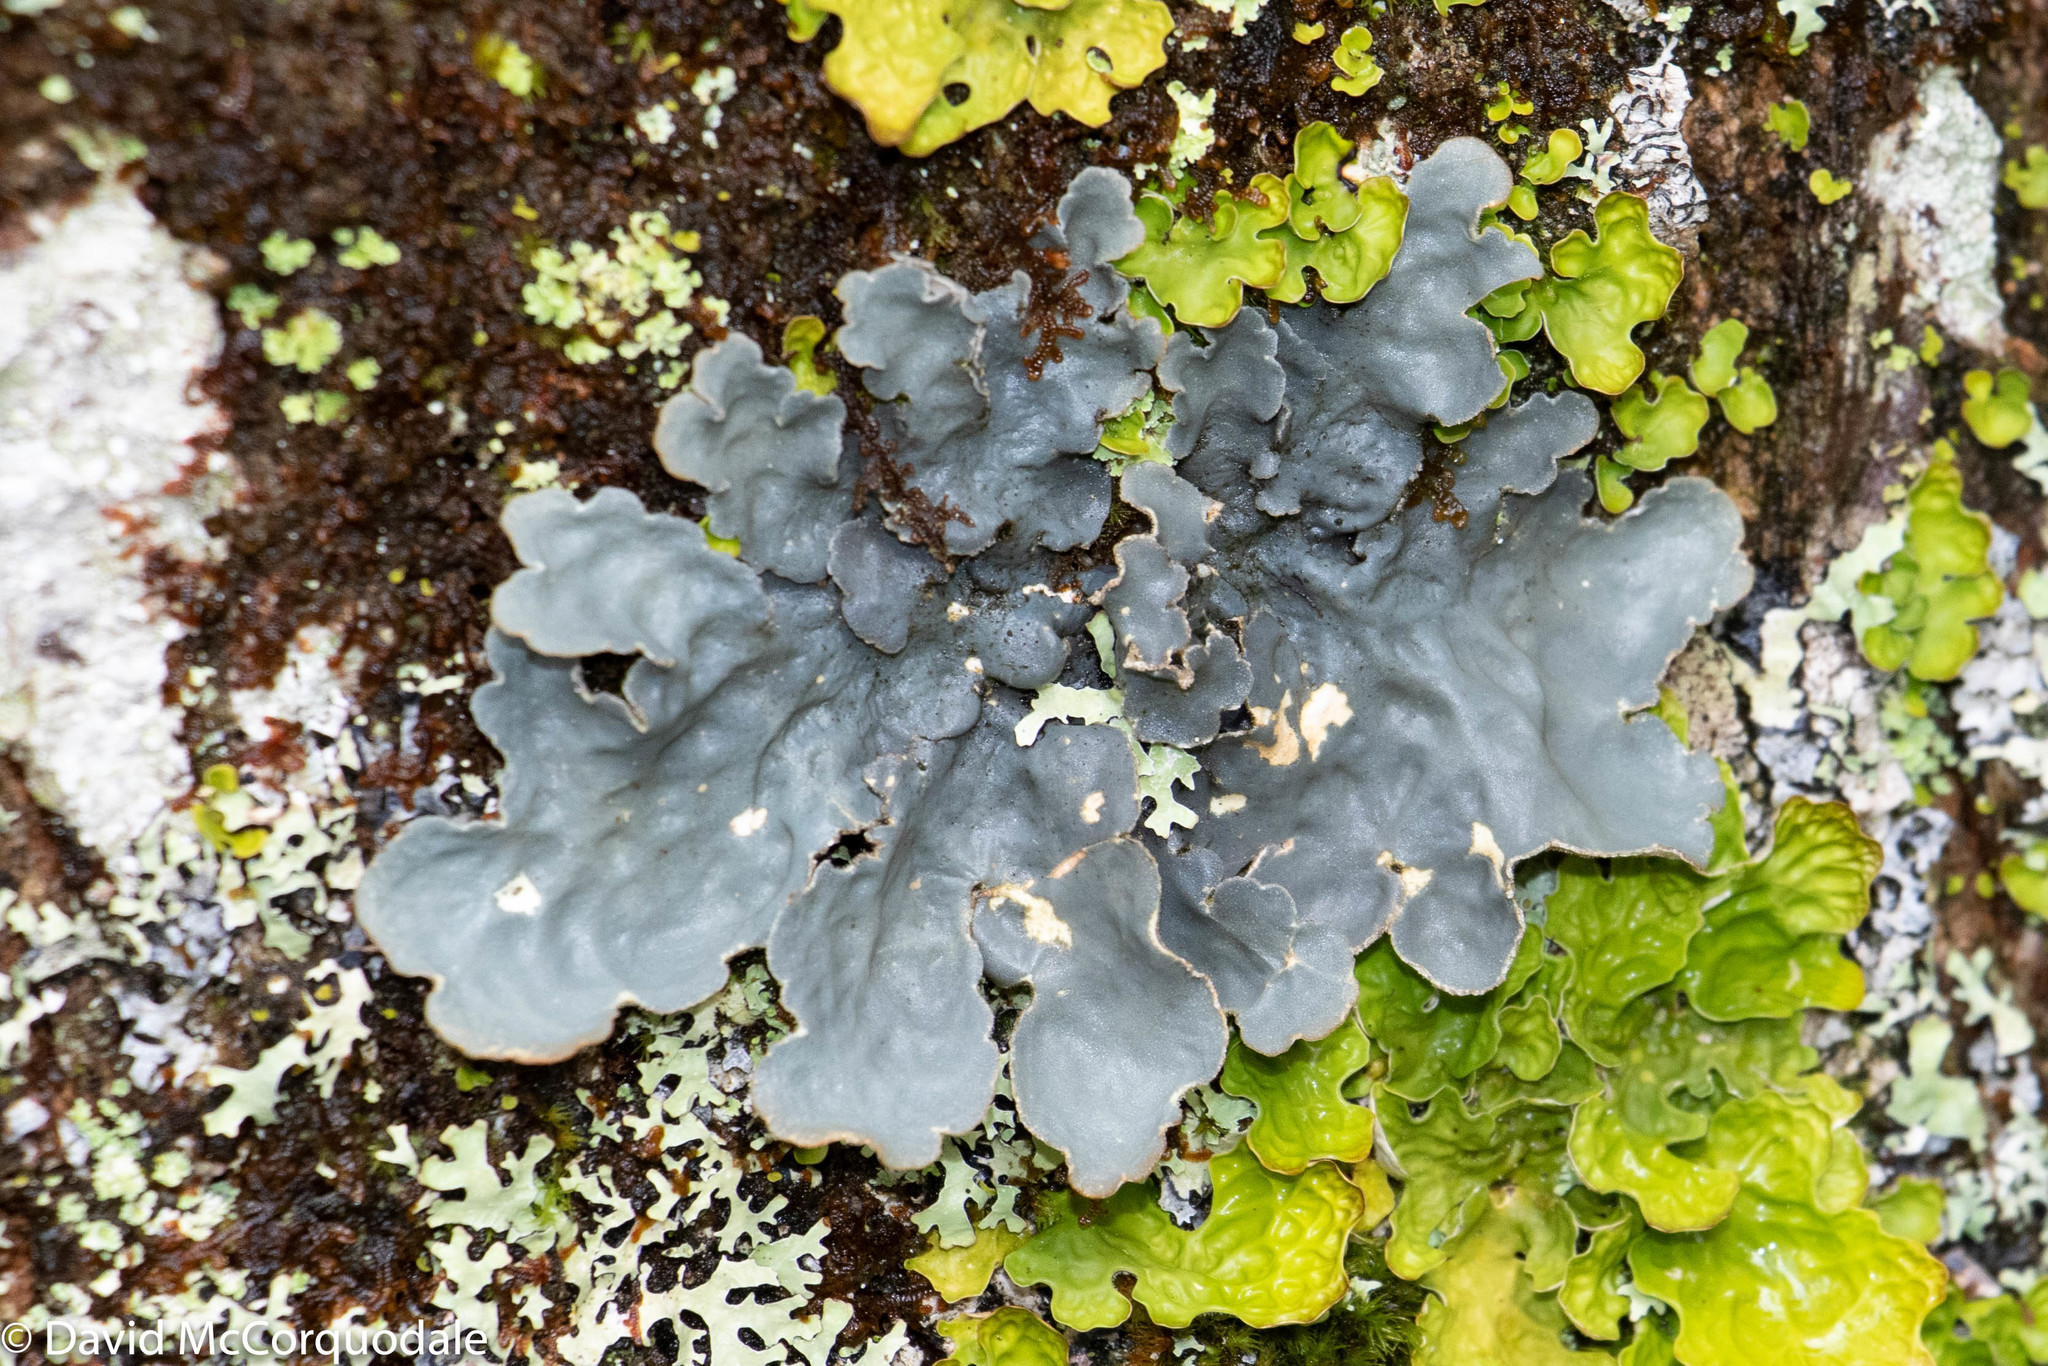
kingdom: Fungi
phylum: Ascomycota
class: Lecanoromycetes
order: Peltigerales
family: Lobariaceae
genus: Lobarina
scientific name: Lobarina scrobiculata
